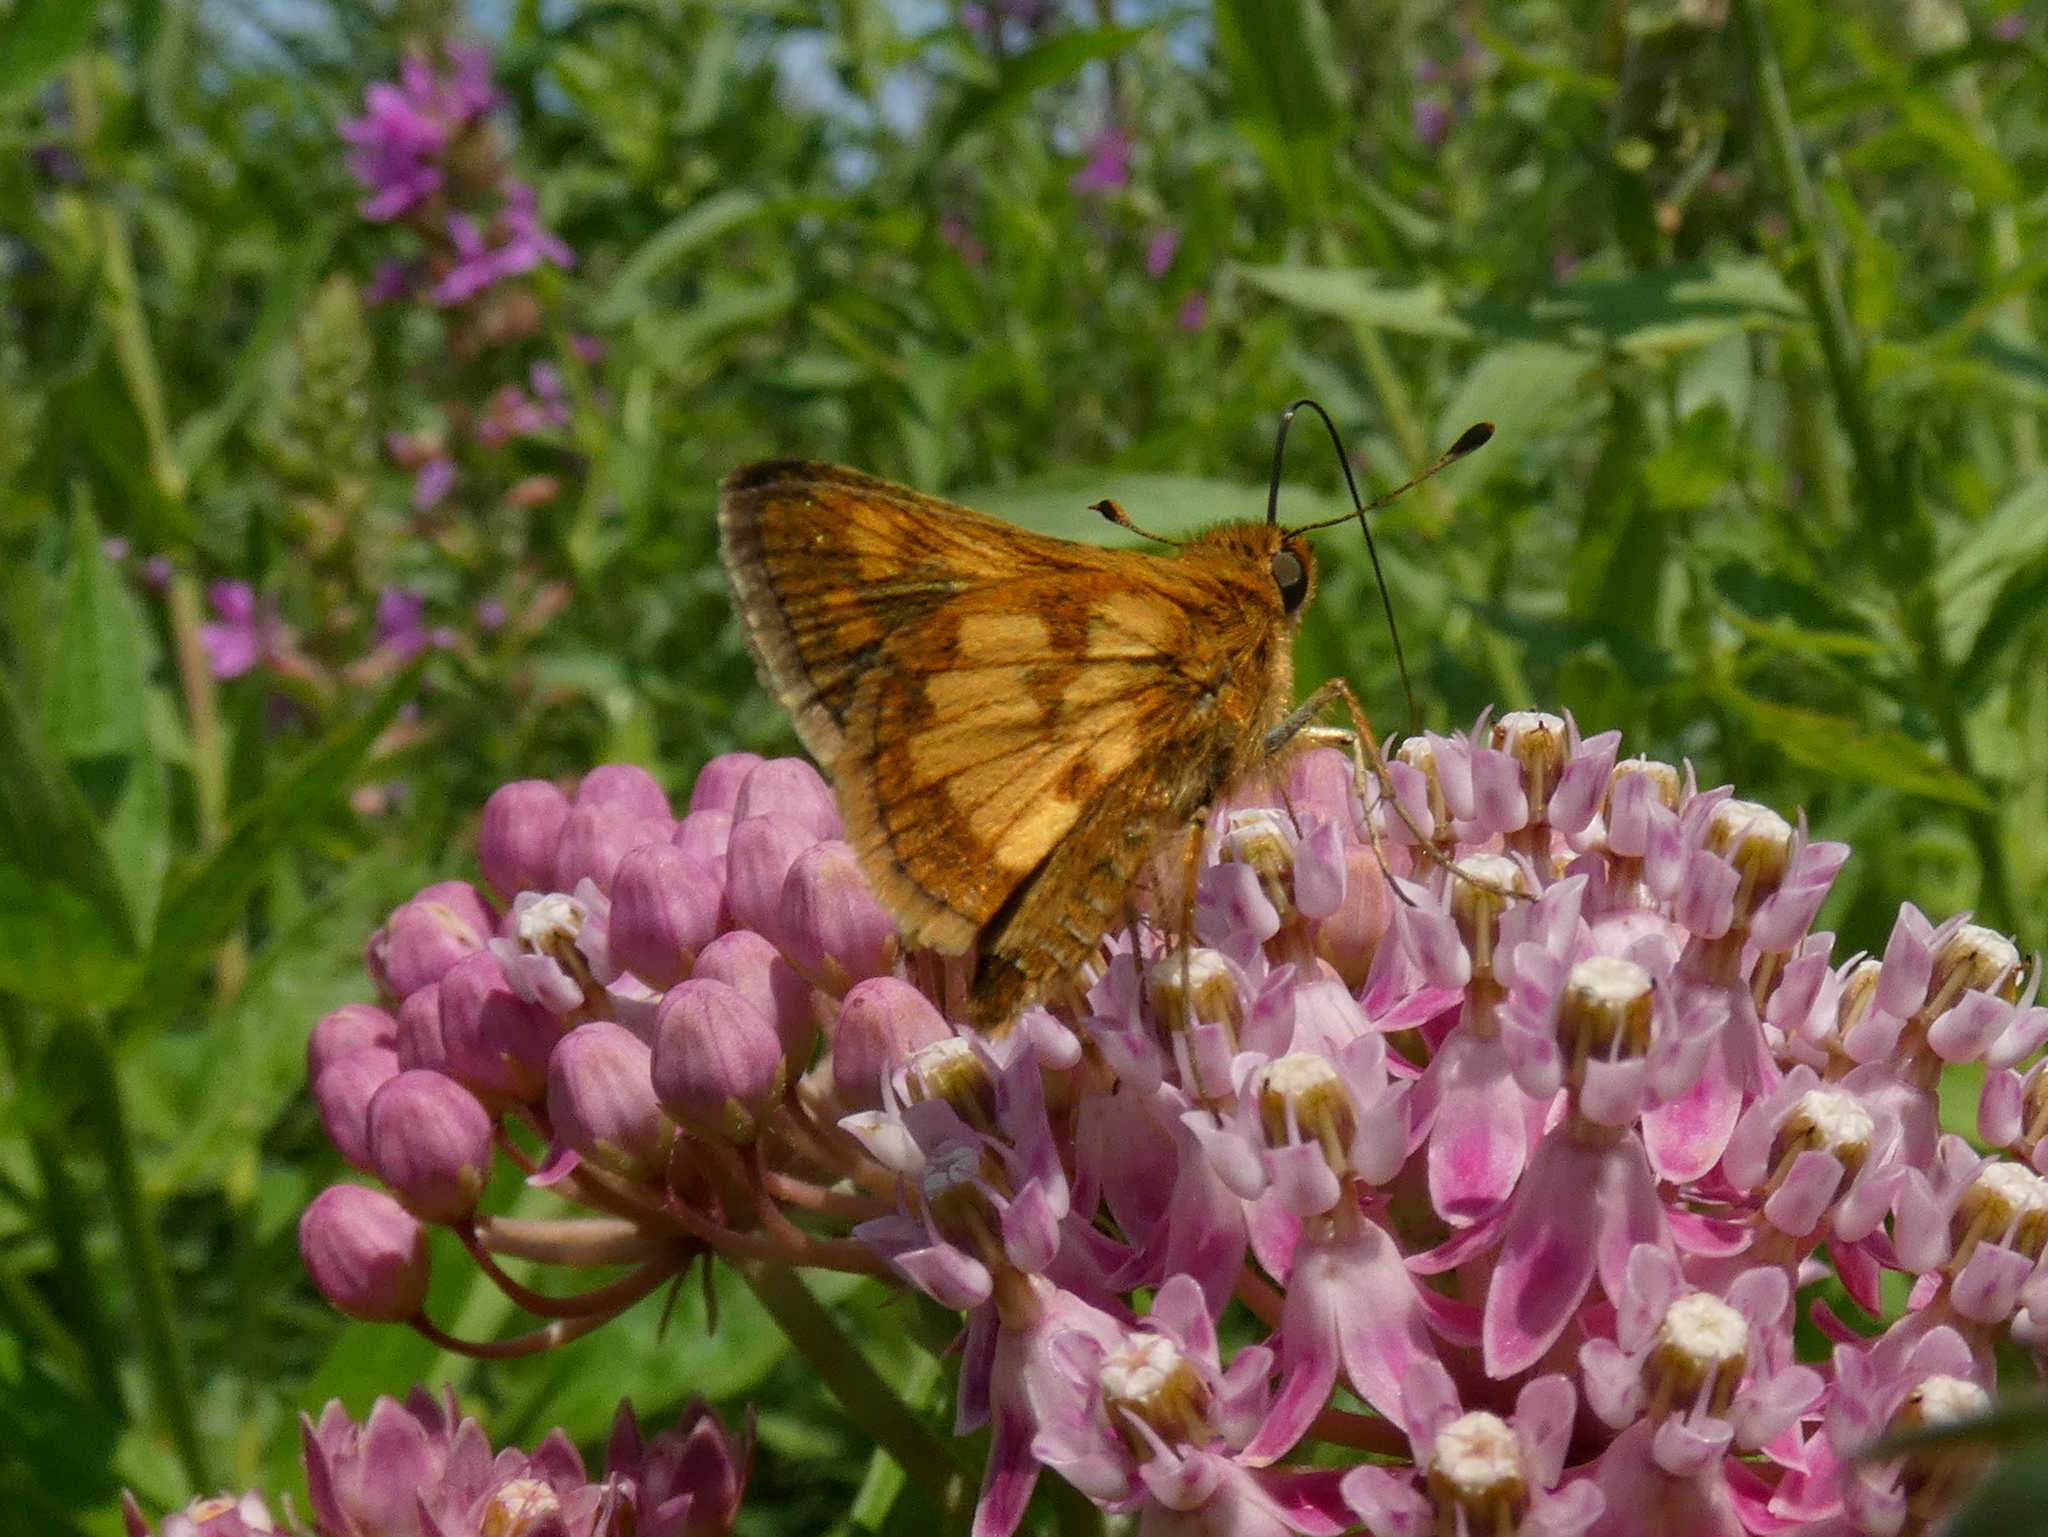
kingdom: Animalia
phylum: Arthropoda
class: Insecta
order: Lepidoptera
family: Hesperiidae
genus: Polites
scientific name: Polites coras
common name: Peck's skipper
